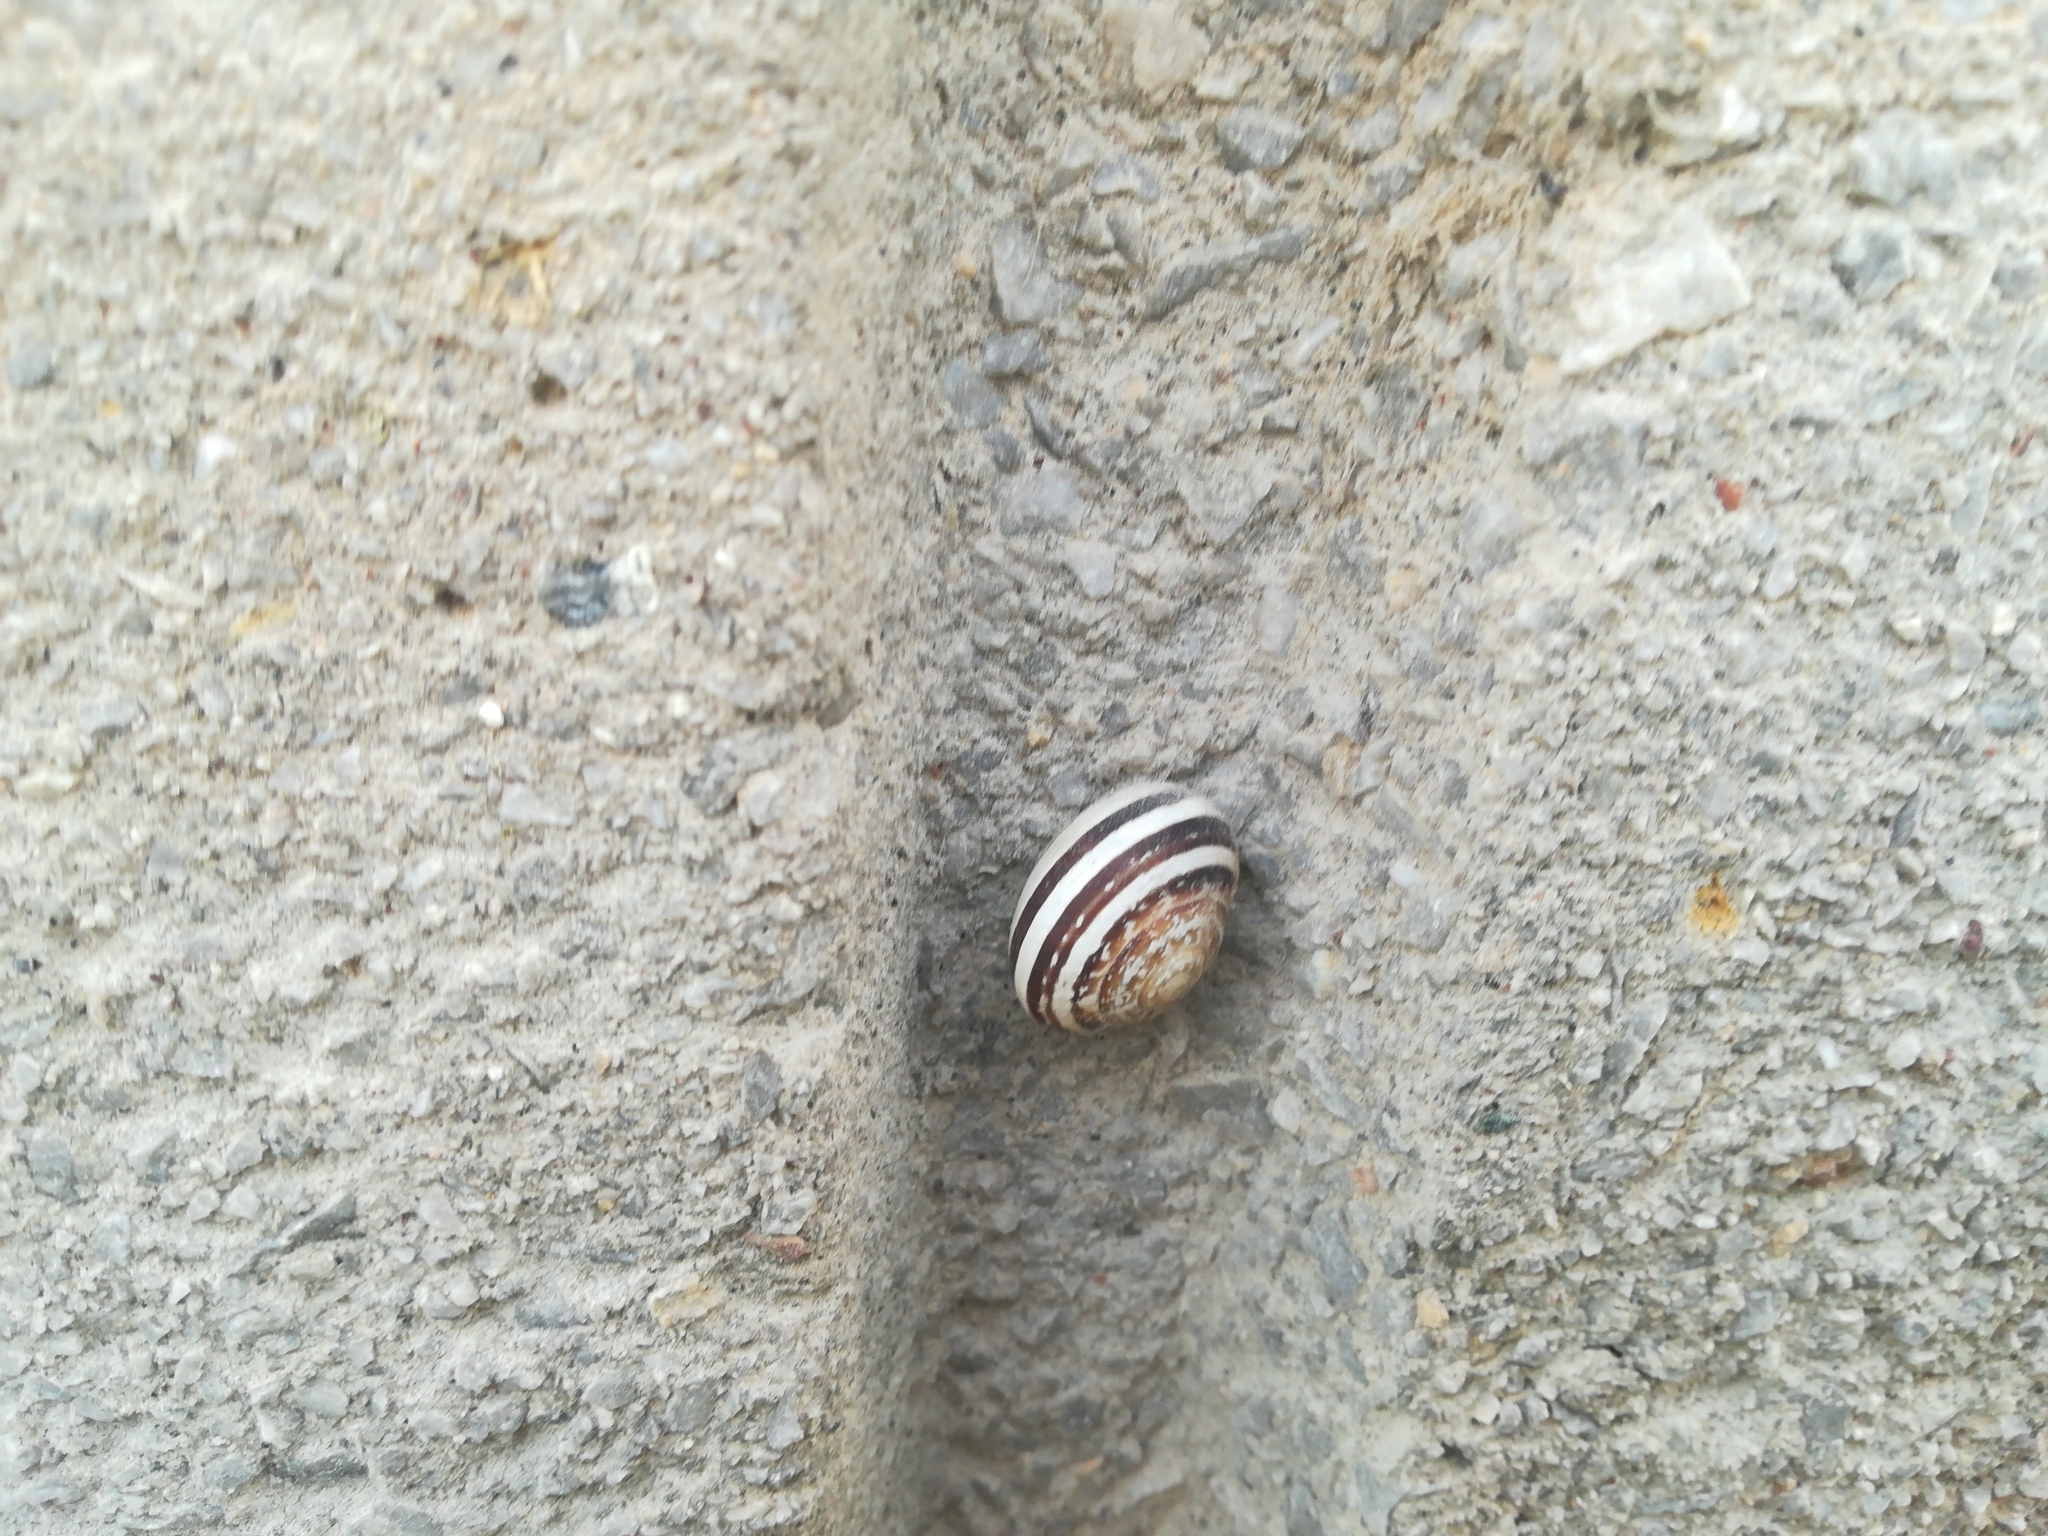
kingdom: Animalia
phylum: Mollusca
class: Gastropoda
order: Stylommatophora
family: Helicidae
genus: Eobania
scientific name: Eobania vermiculata
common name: Chocolateband snail
